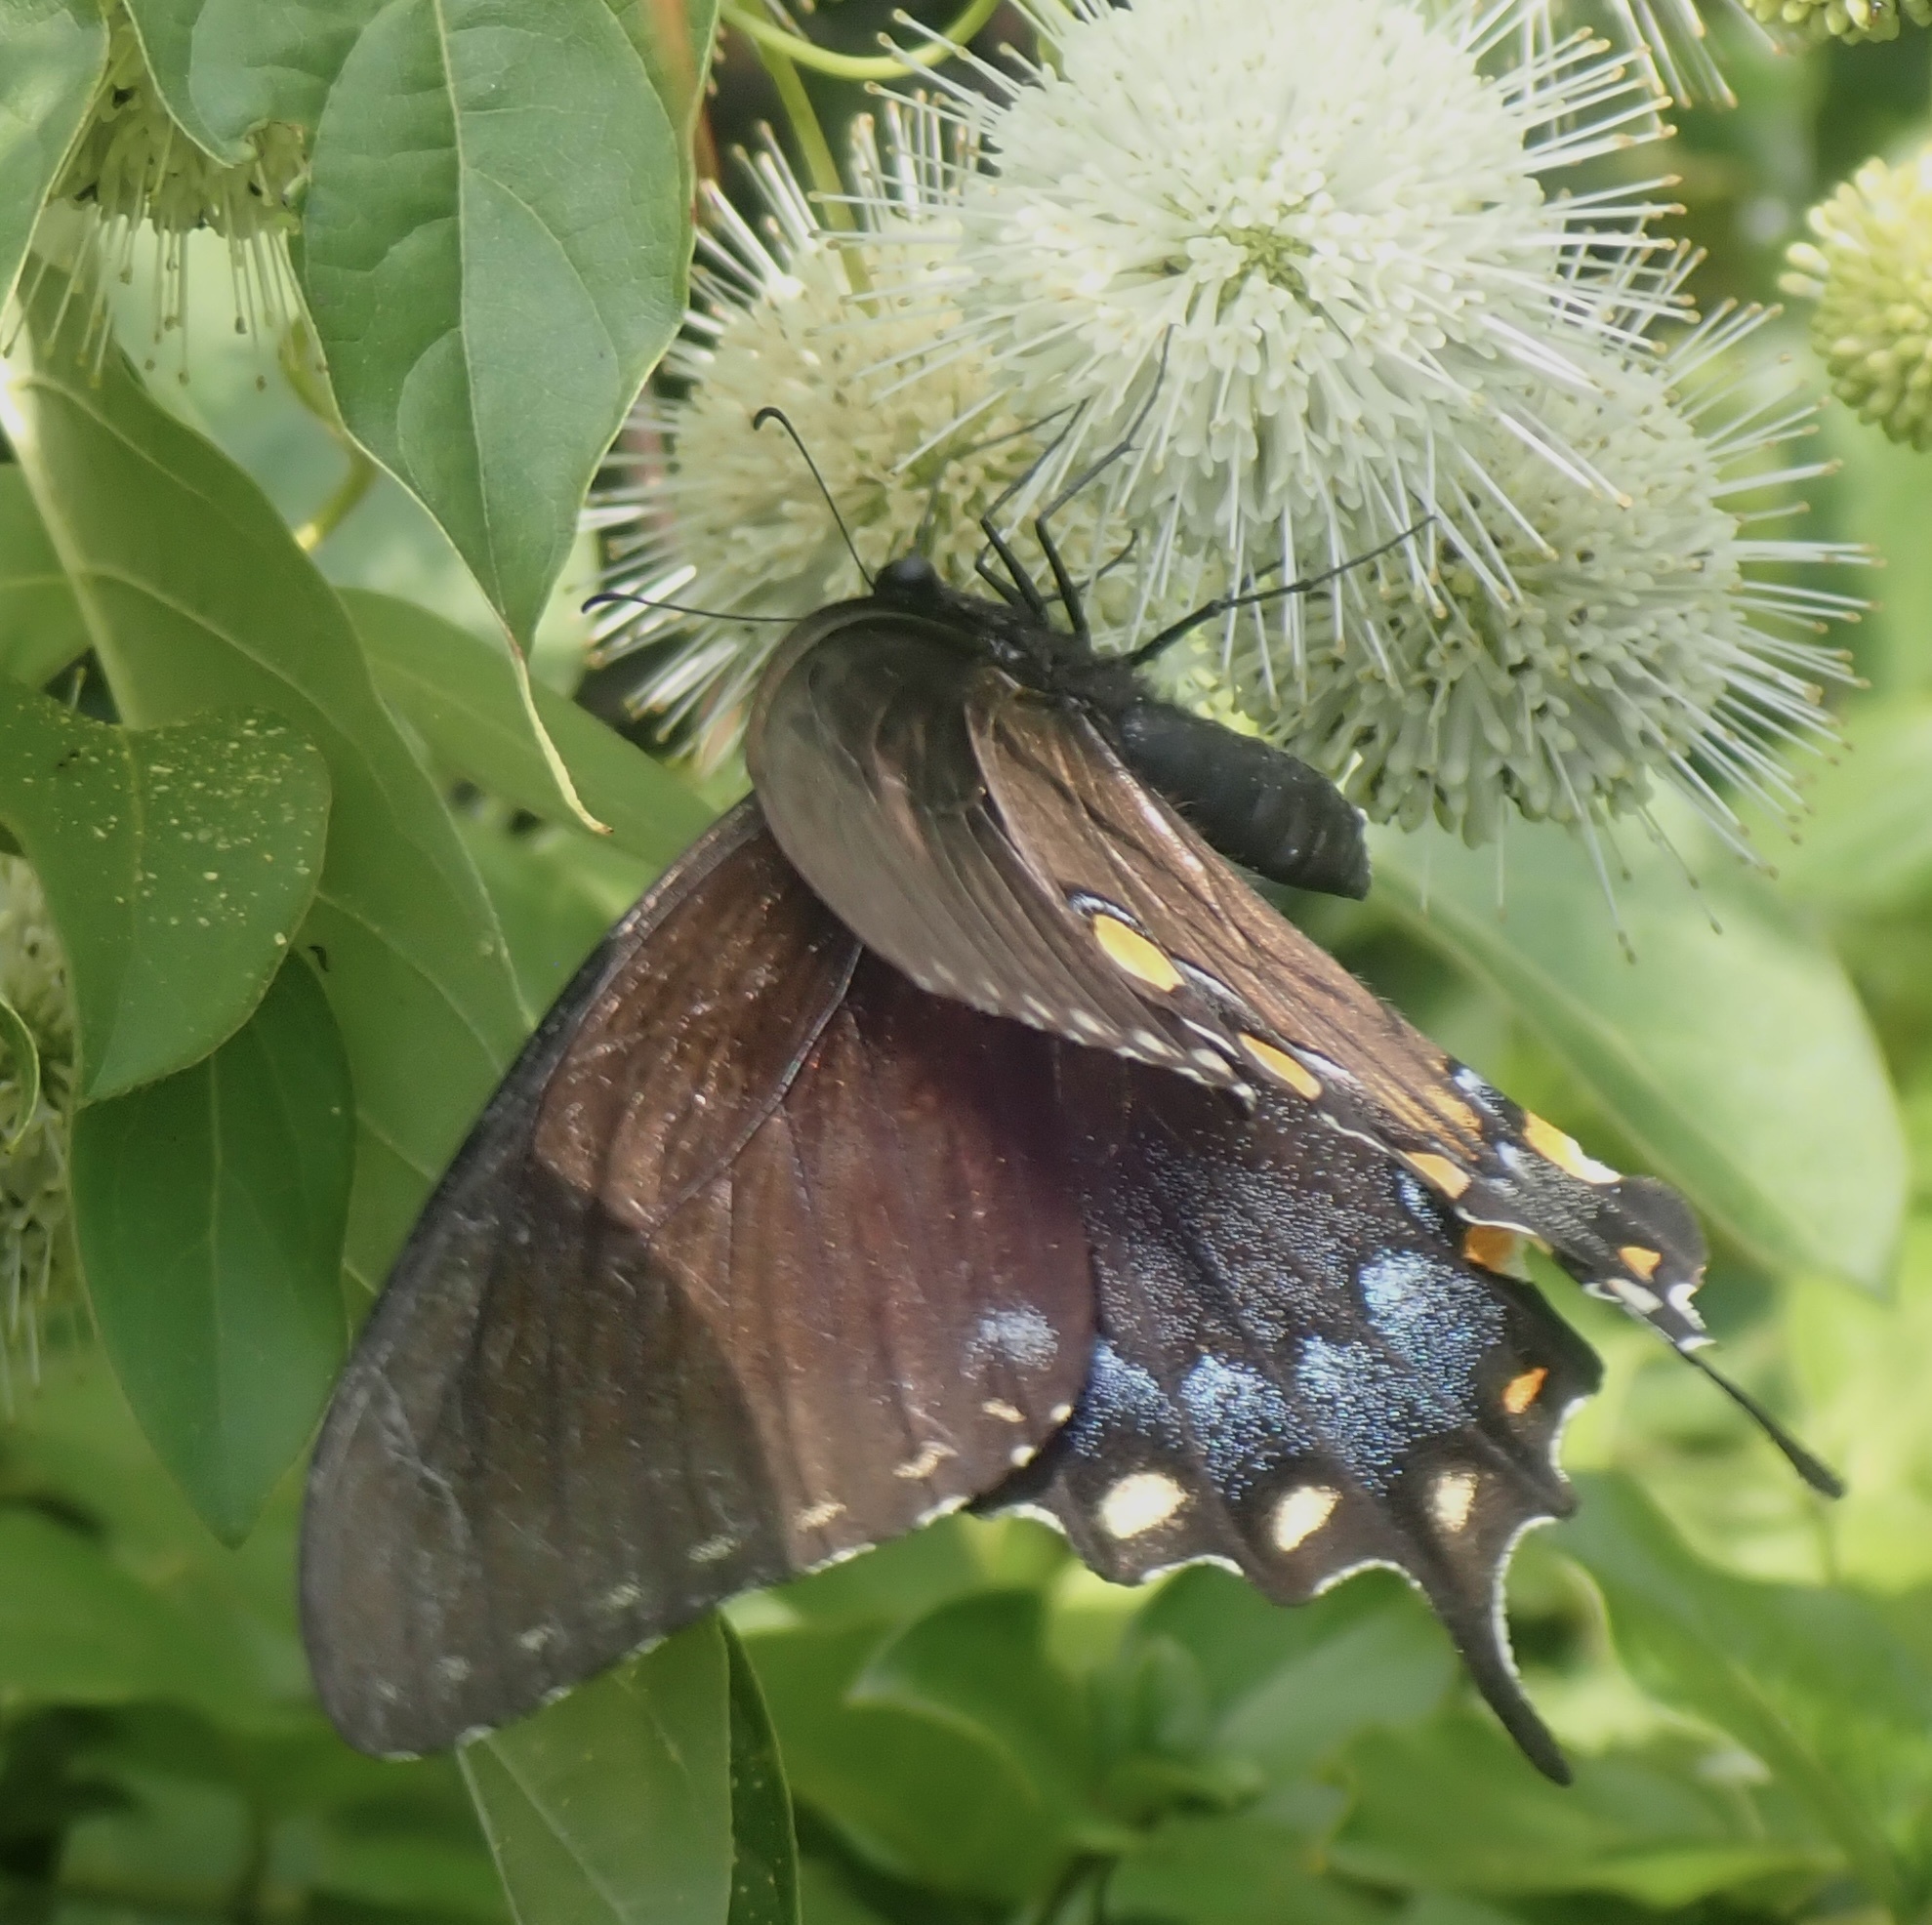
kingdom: Animalia
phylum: Arthropoda
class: Insecta
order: Lepidoptera
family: Papilionidae
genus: Papilio
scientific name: Papilio glaucus
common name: Tiger swallowtail
